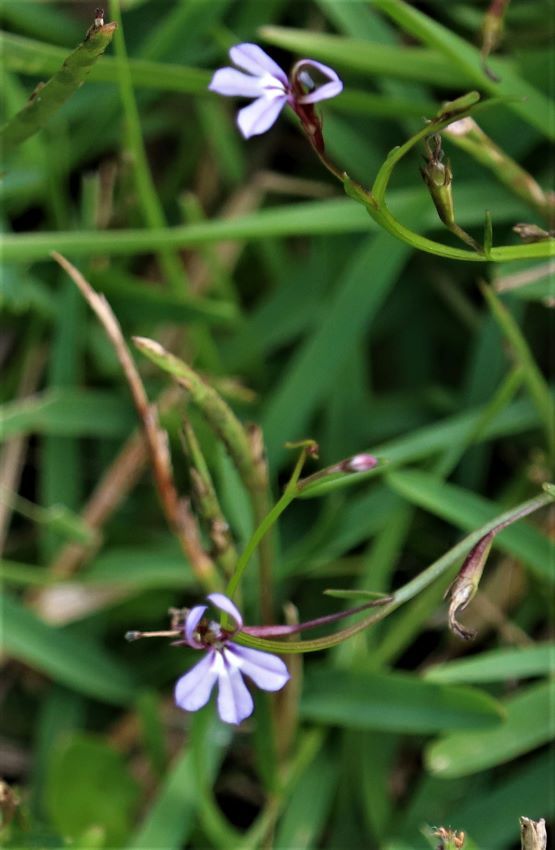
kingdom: Plantae
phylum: Tracheophyta
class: Magnoliopsida
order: Asterales
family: Campanulaceae
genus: Lobelia
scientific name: Lobelia anceps
